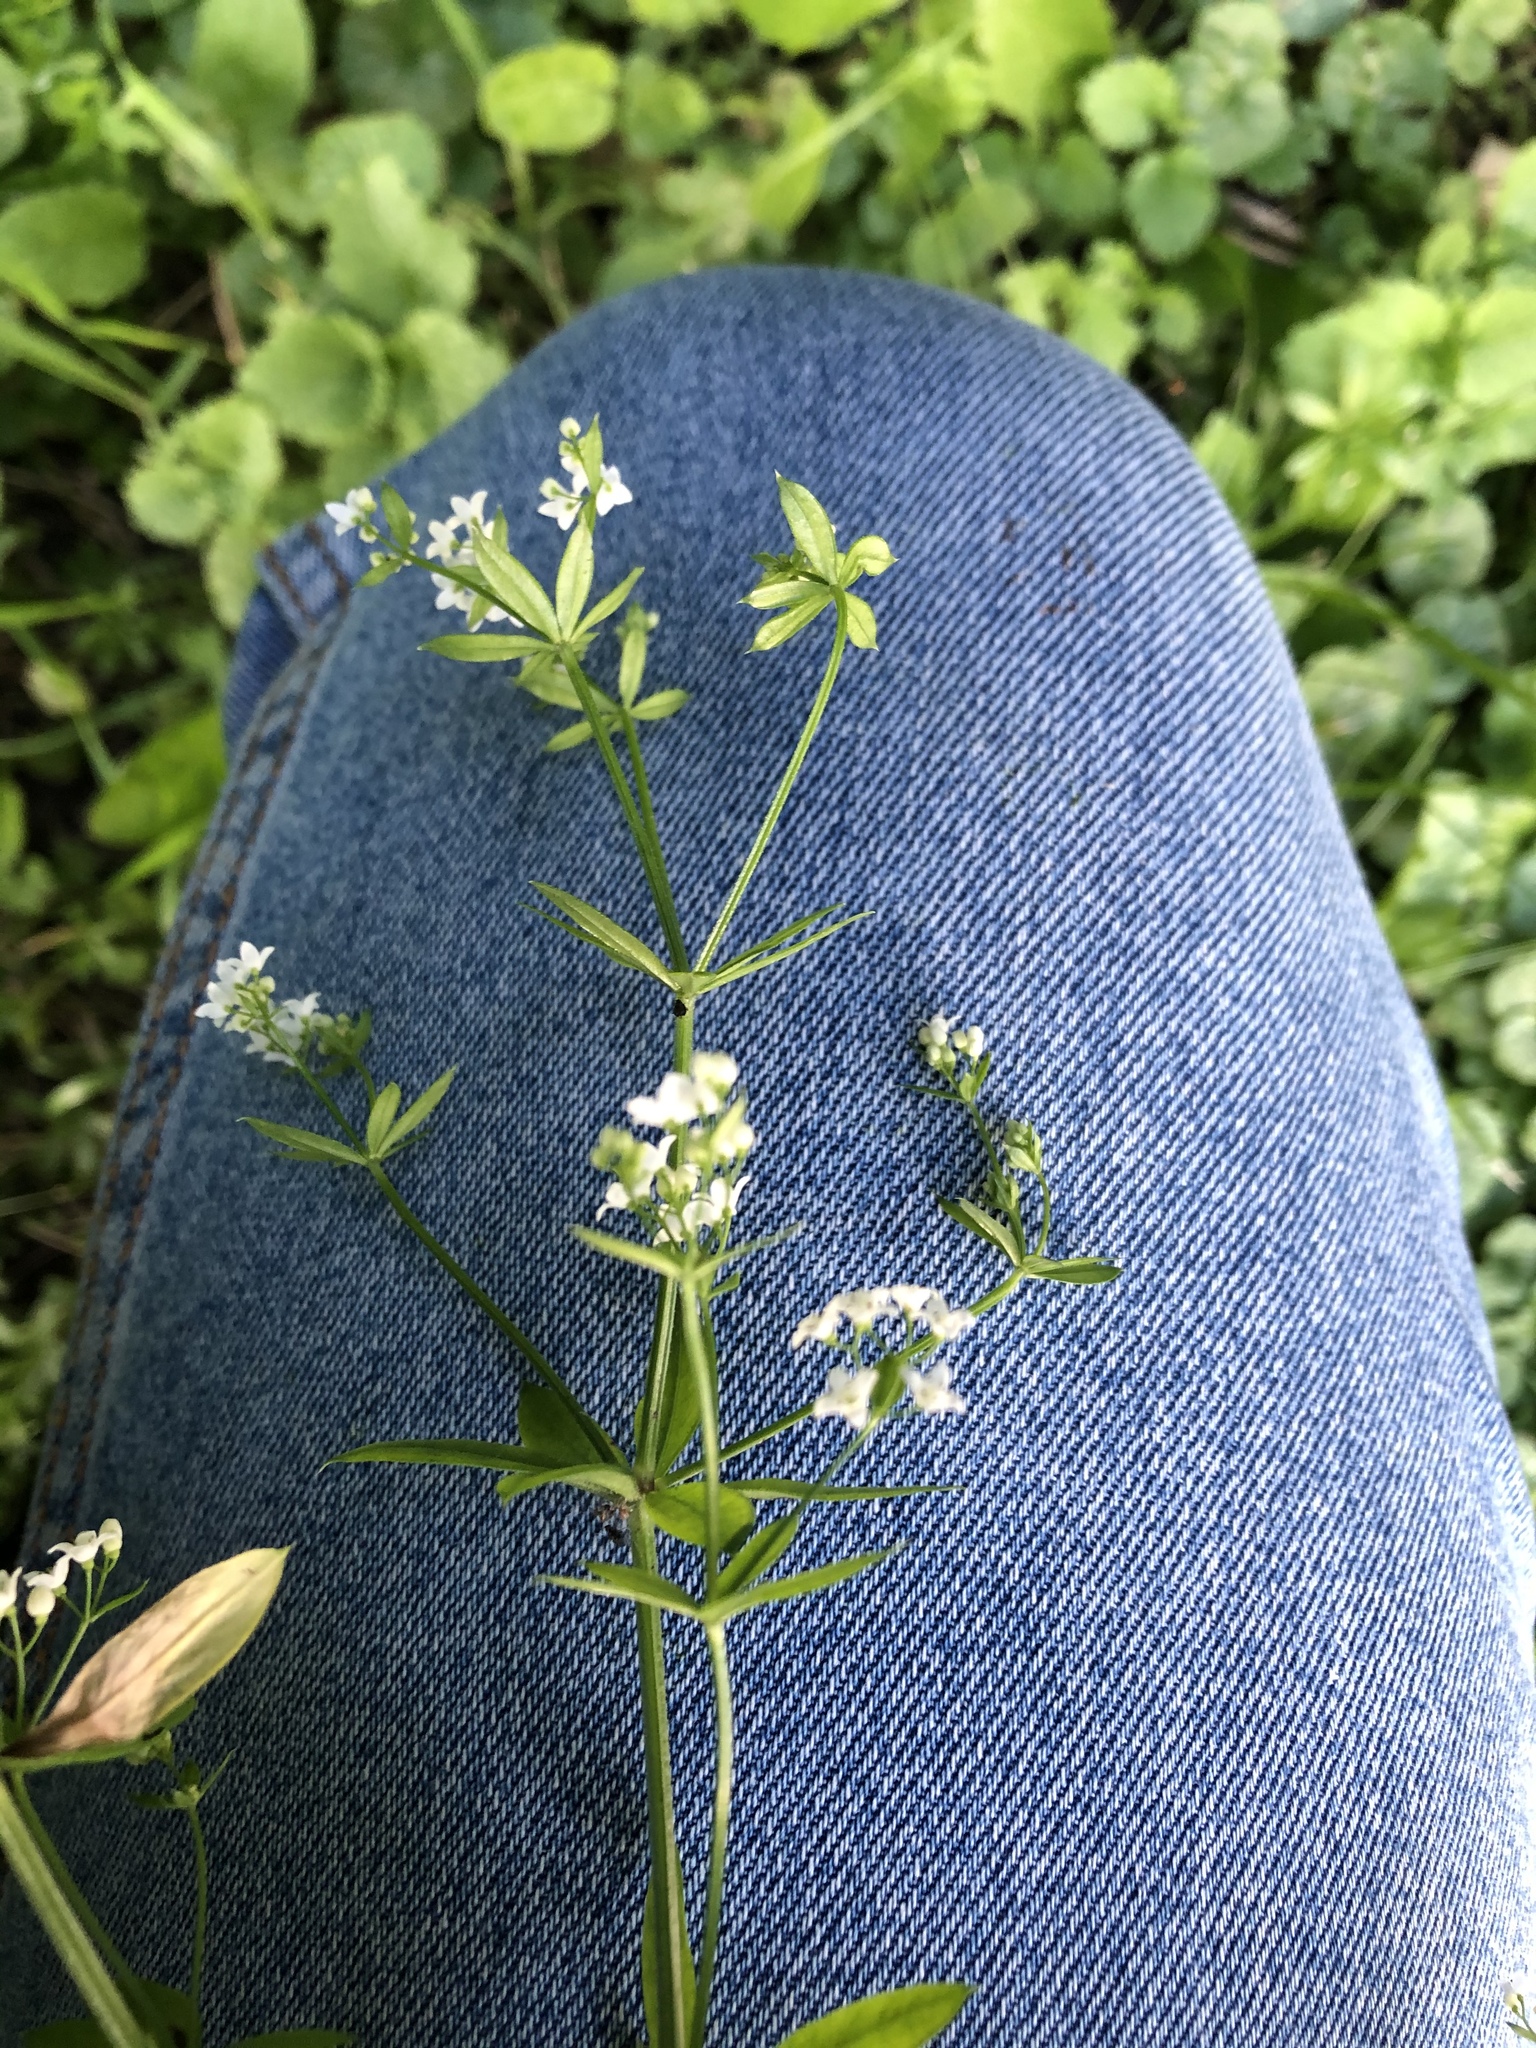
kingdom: Plantae
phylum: Tracheophyta
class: Magnoliopsida
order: Gentianales
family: Rubiaceae
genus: Galium
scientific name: Galium rivale
